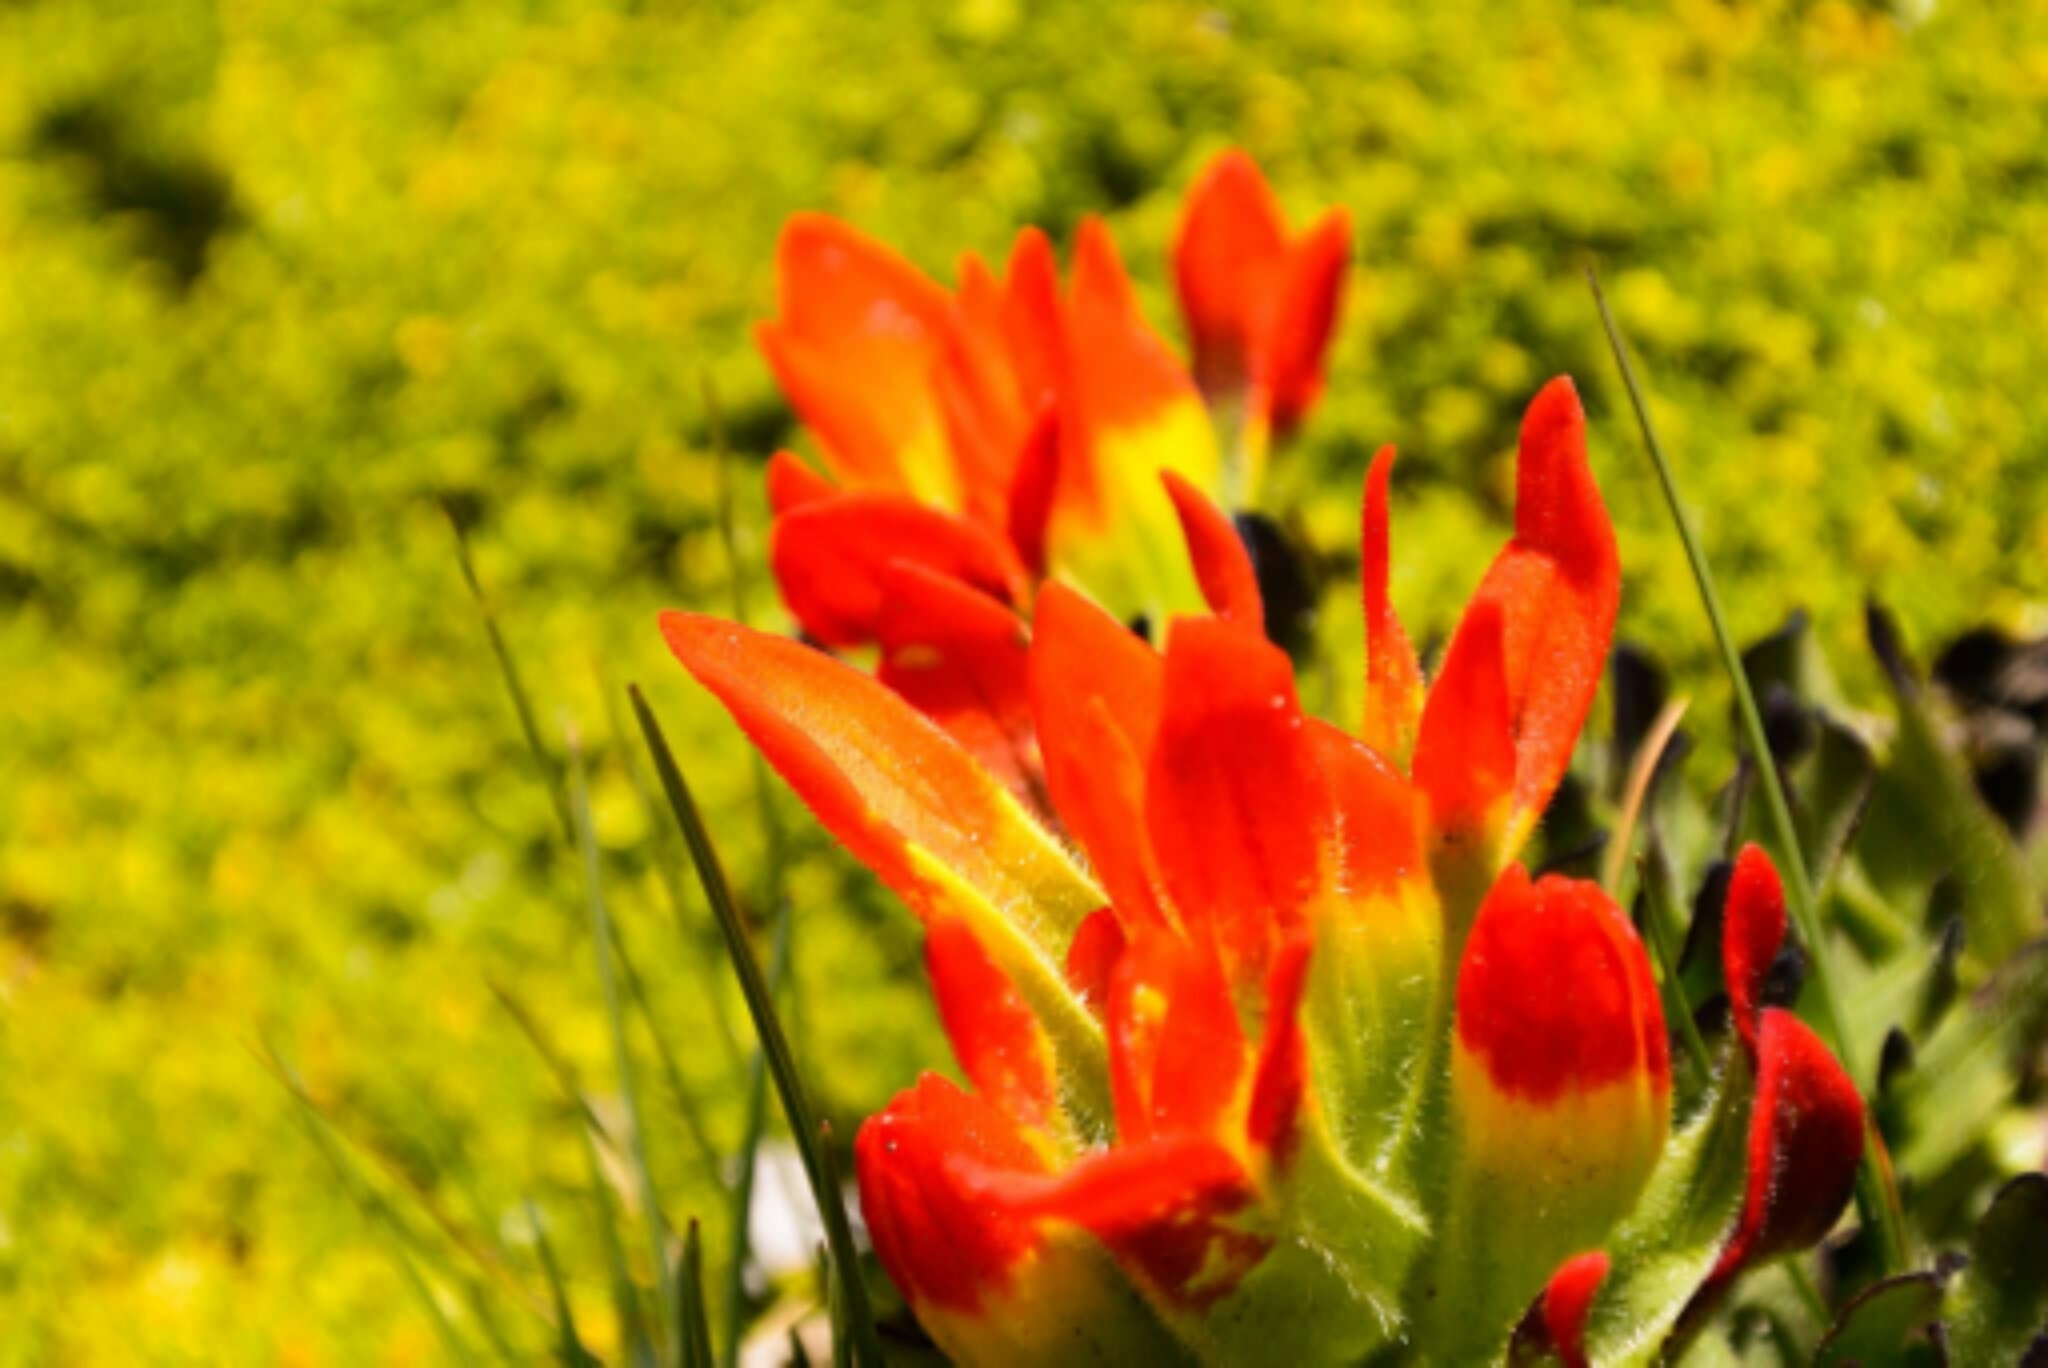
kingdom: Plantae
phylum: Tracheophyta
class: Magnoliopsida
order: Lamiales
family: Orobanchaceae
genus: Castilleja
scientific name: Castilleja tolucensis
